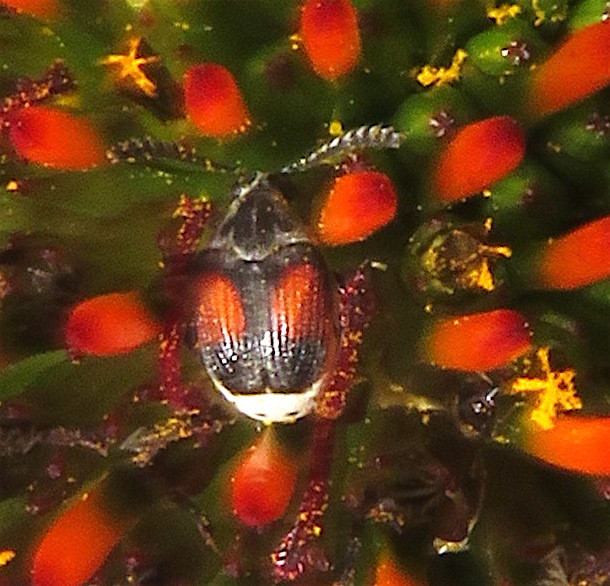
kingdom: Animalia
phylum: Arthropoda
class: Insecta
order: Coleoptera
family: Chrysomelidae
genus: Megacerus
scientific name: Megacerus discoidus
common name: Red megacerus
